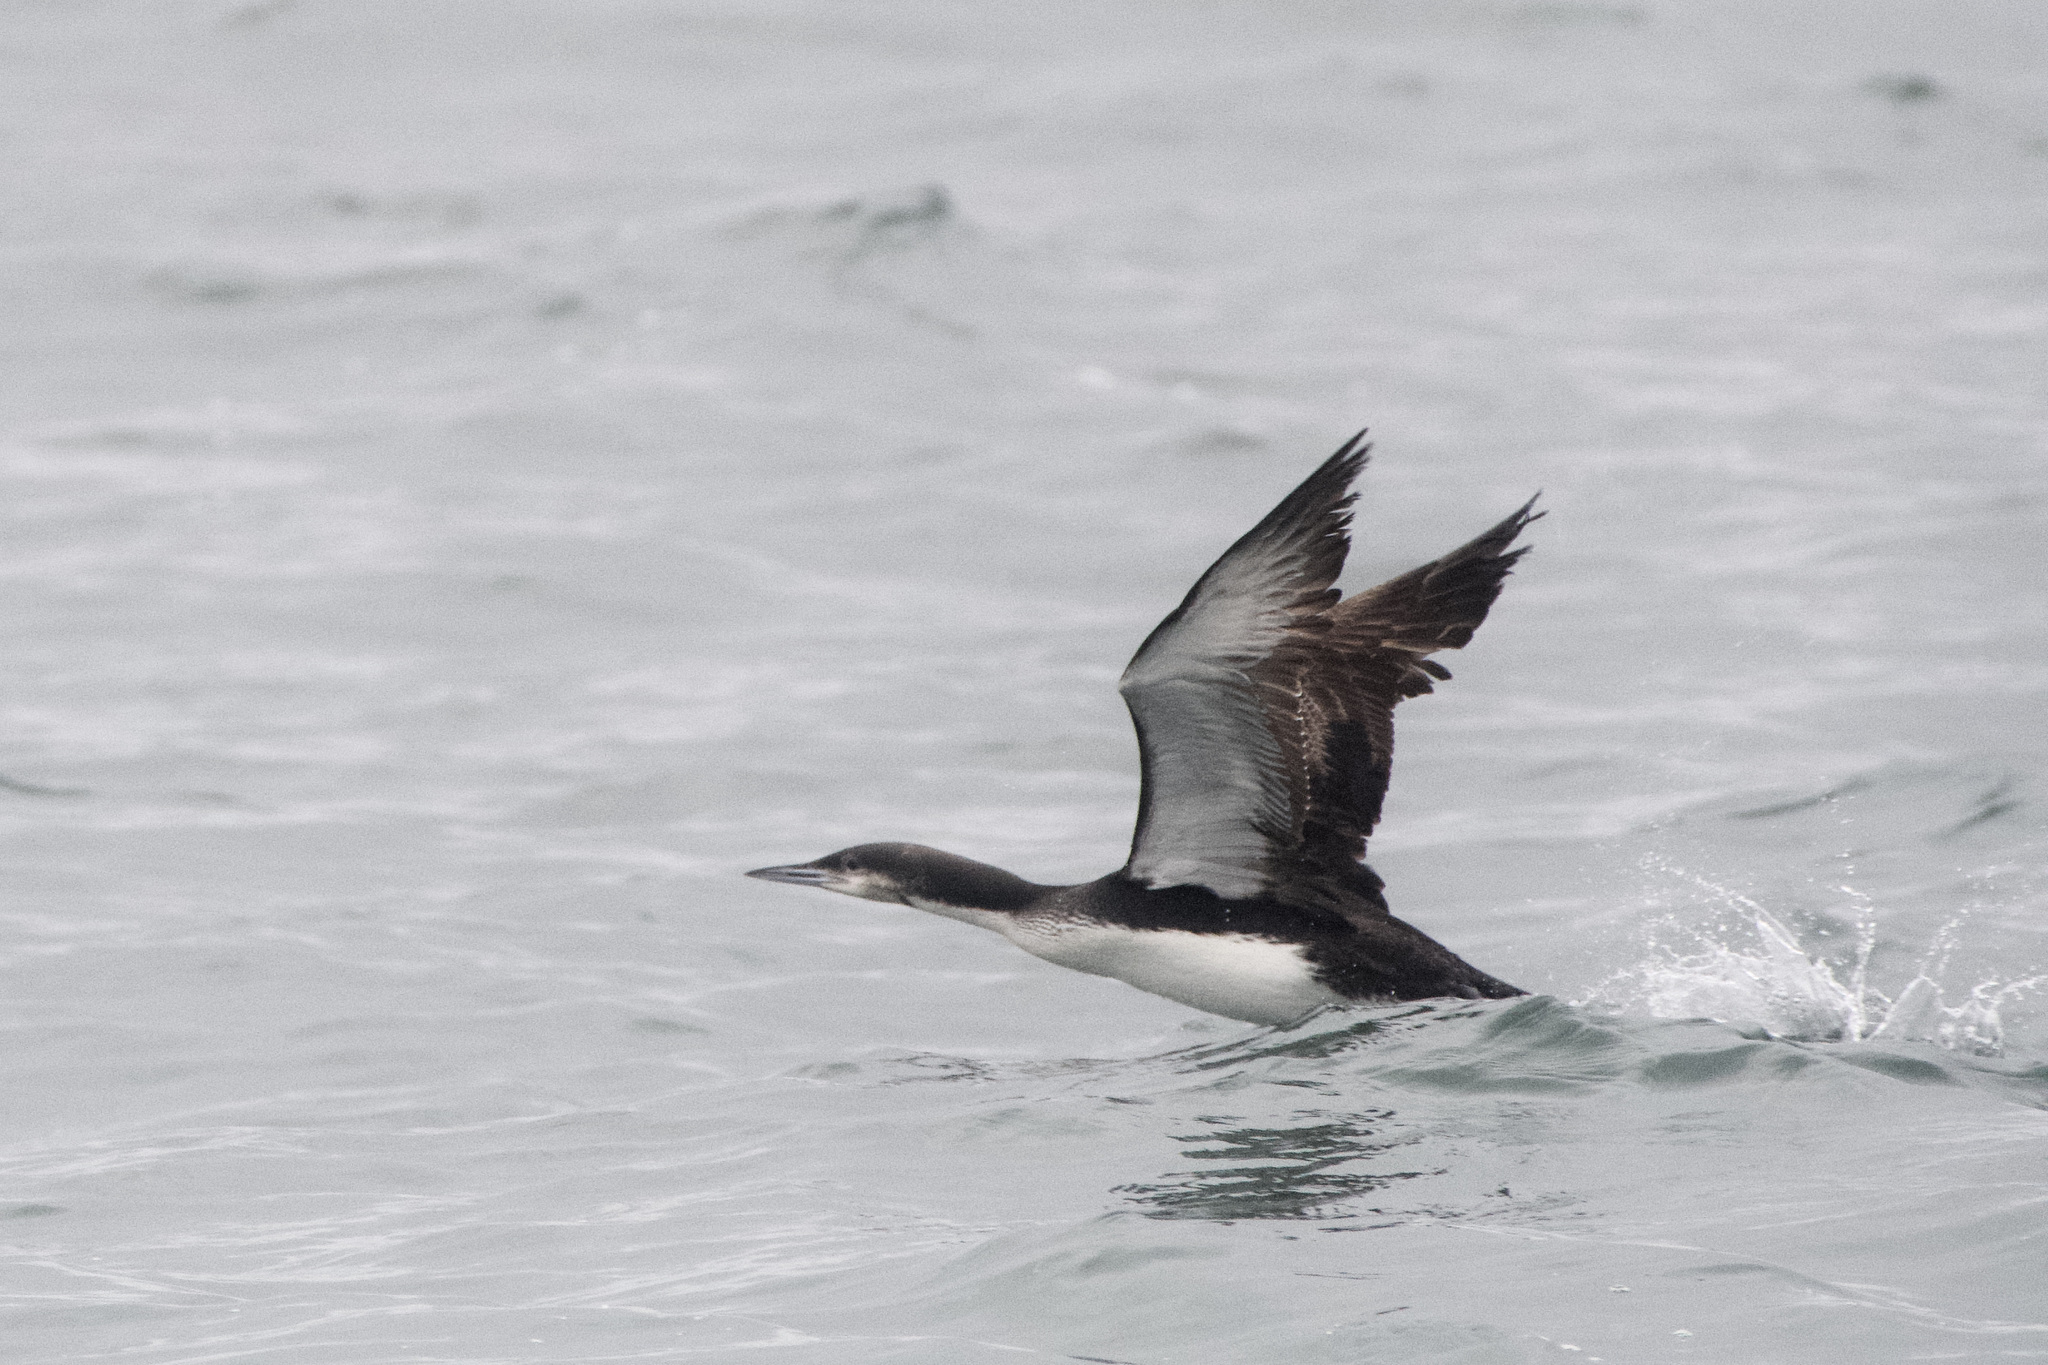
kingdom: Animalia
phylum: Chordata
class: Aves
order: Gaviiformes
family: Gaviidae
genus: Gavia
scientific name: Gavia pacifica
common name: Pacific loon
